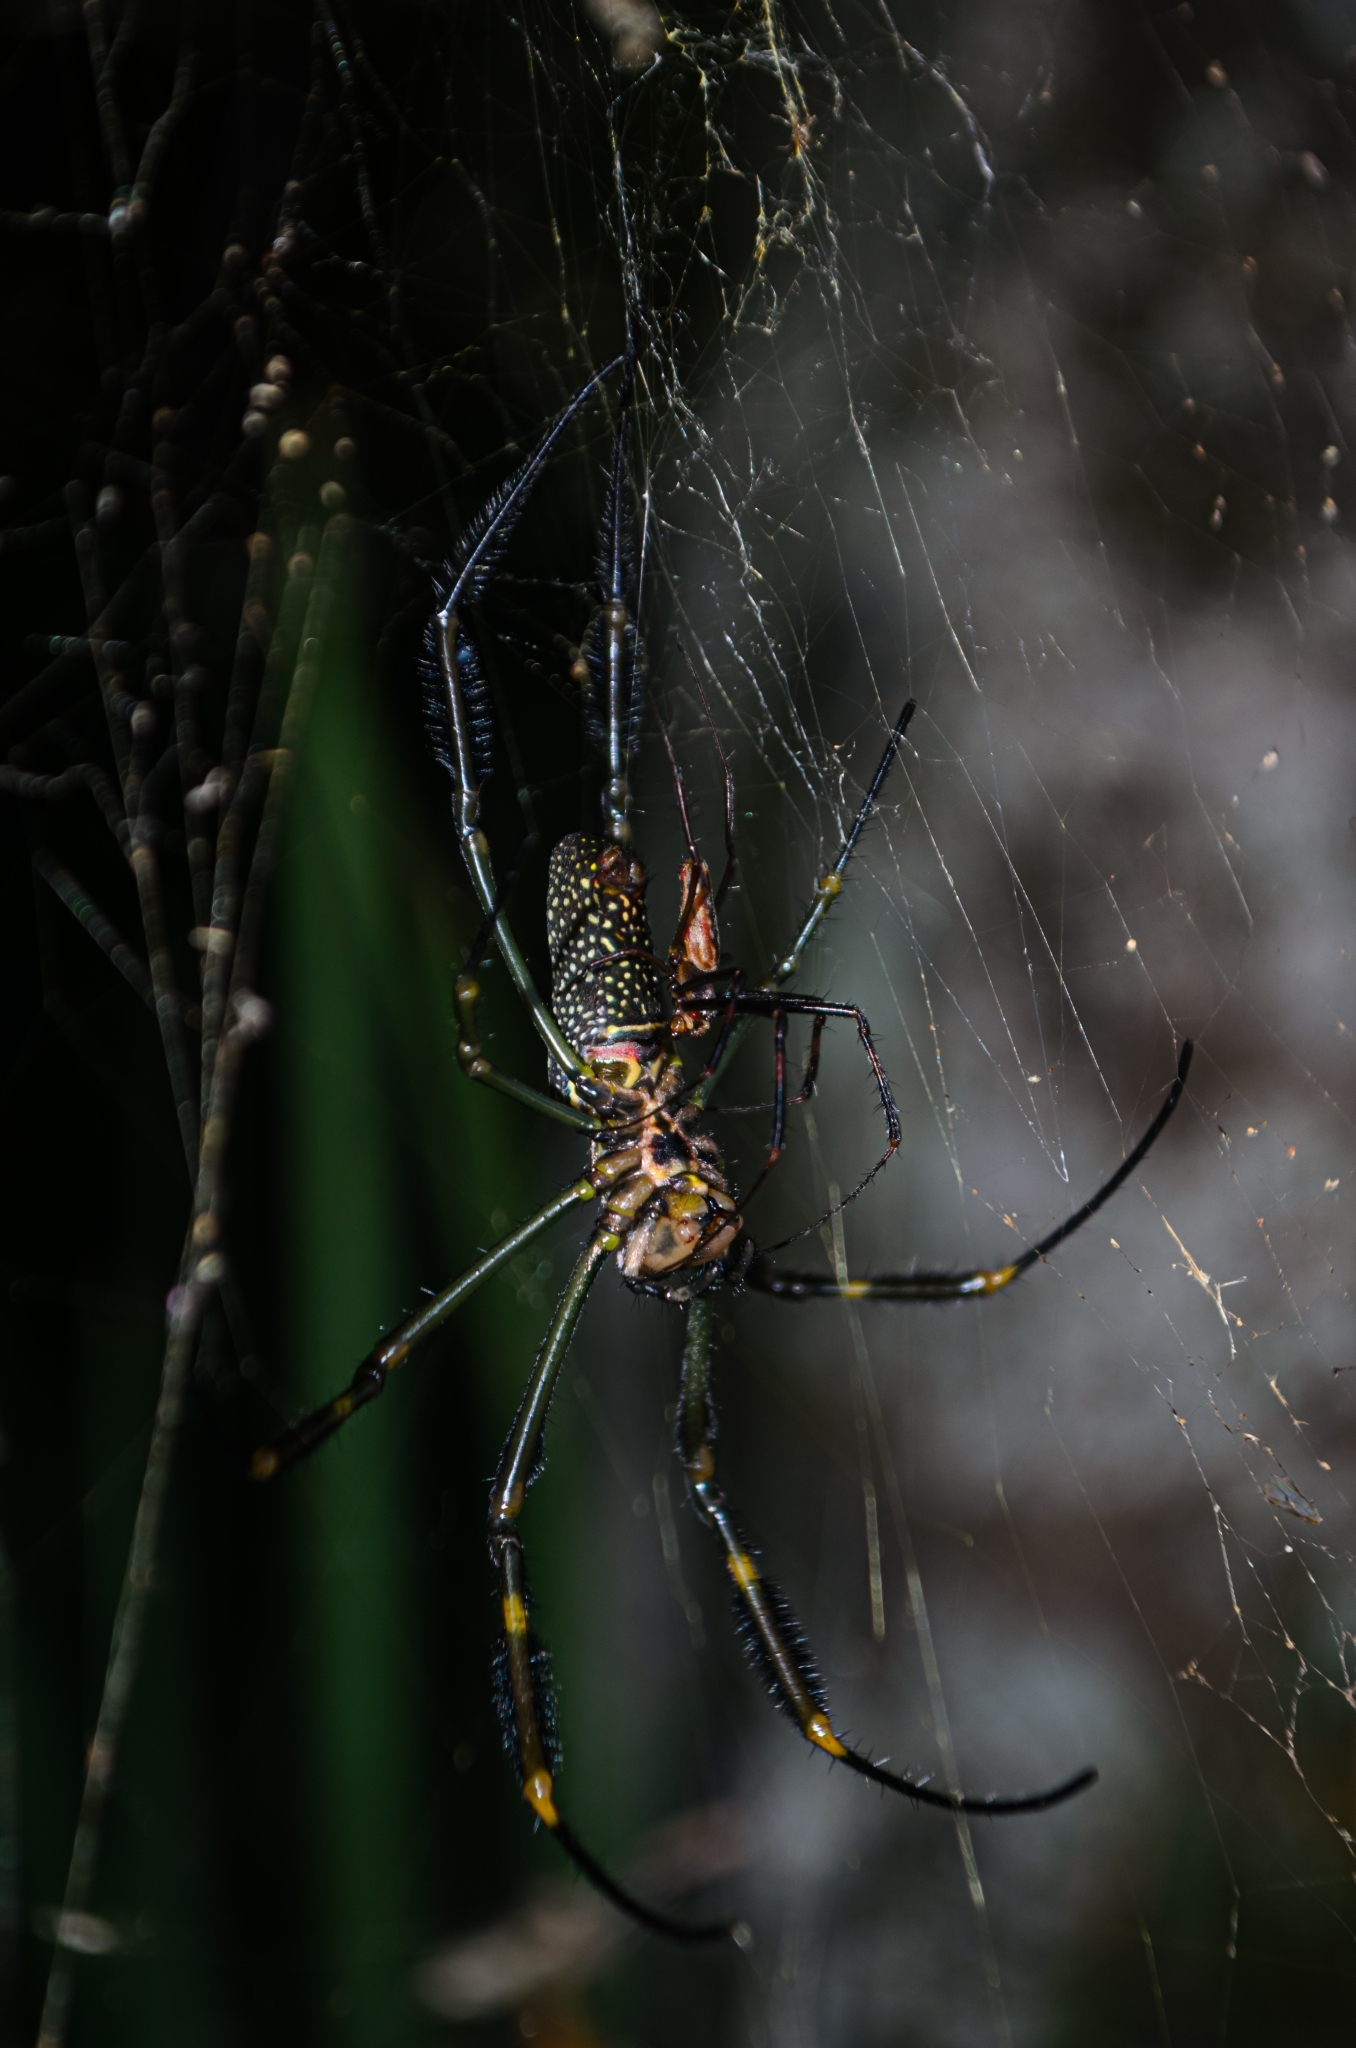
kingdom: Animalia
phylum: Arthropoda
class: Arachnida
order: Araneae
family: Araneidae
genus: Trichonephila
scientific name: Trichonephila clavipes
